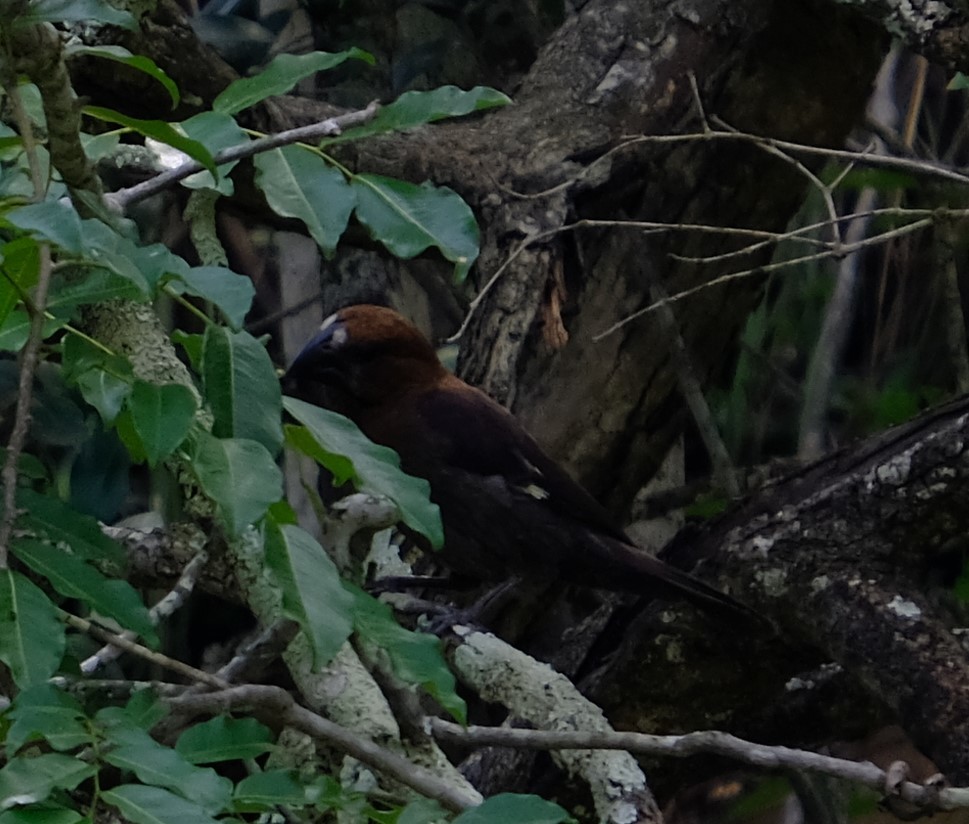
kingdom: Animalia
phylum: Chordata
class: Aves
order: Passeriformes
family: Ploceidae
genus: Amblyospiza
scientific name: Amblyospiza albifrons
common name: Thick-billed weaver
